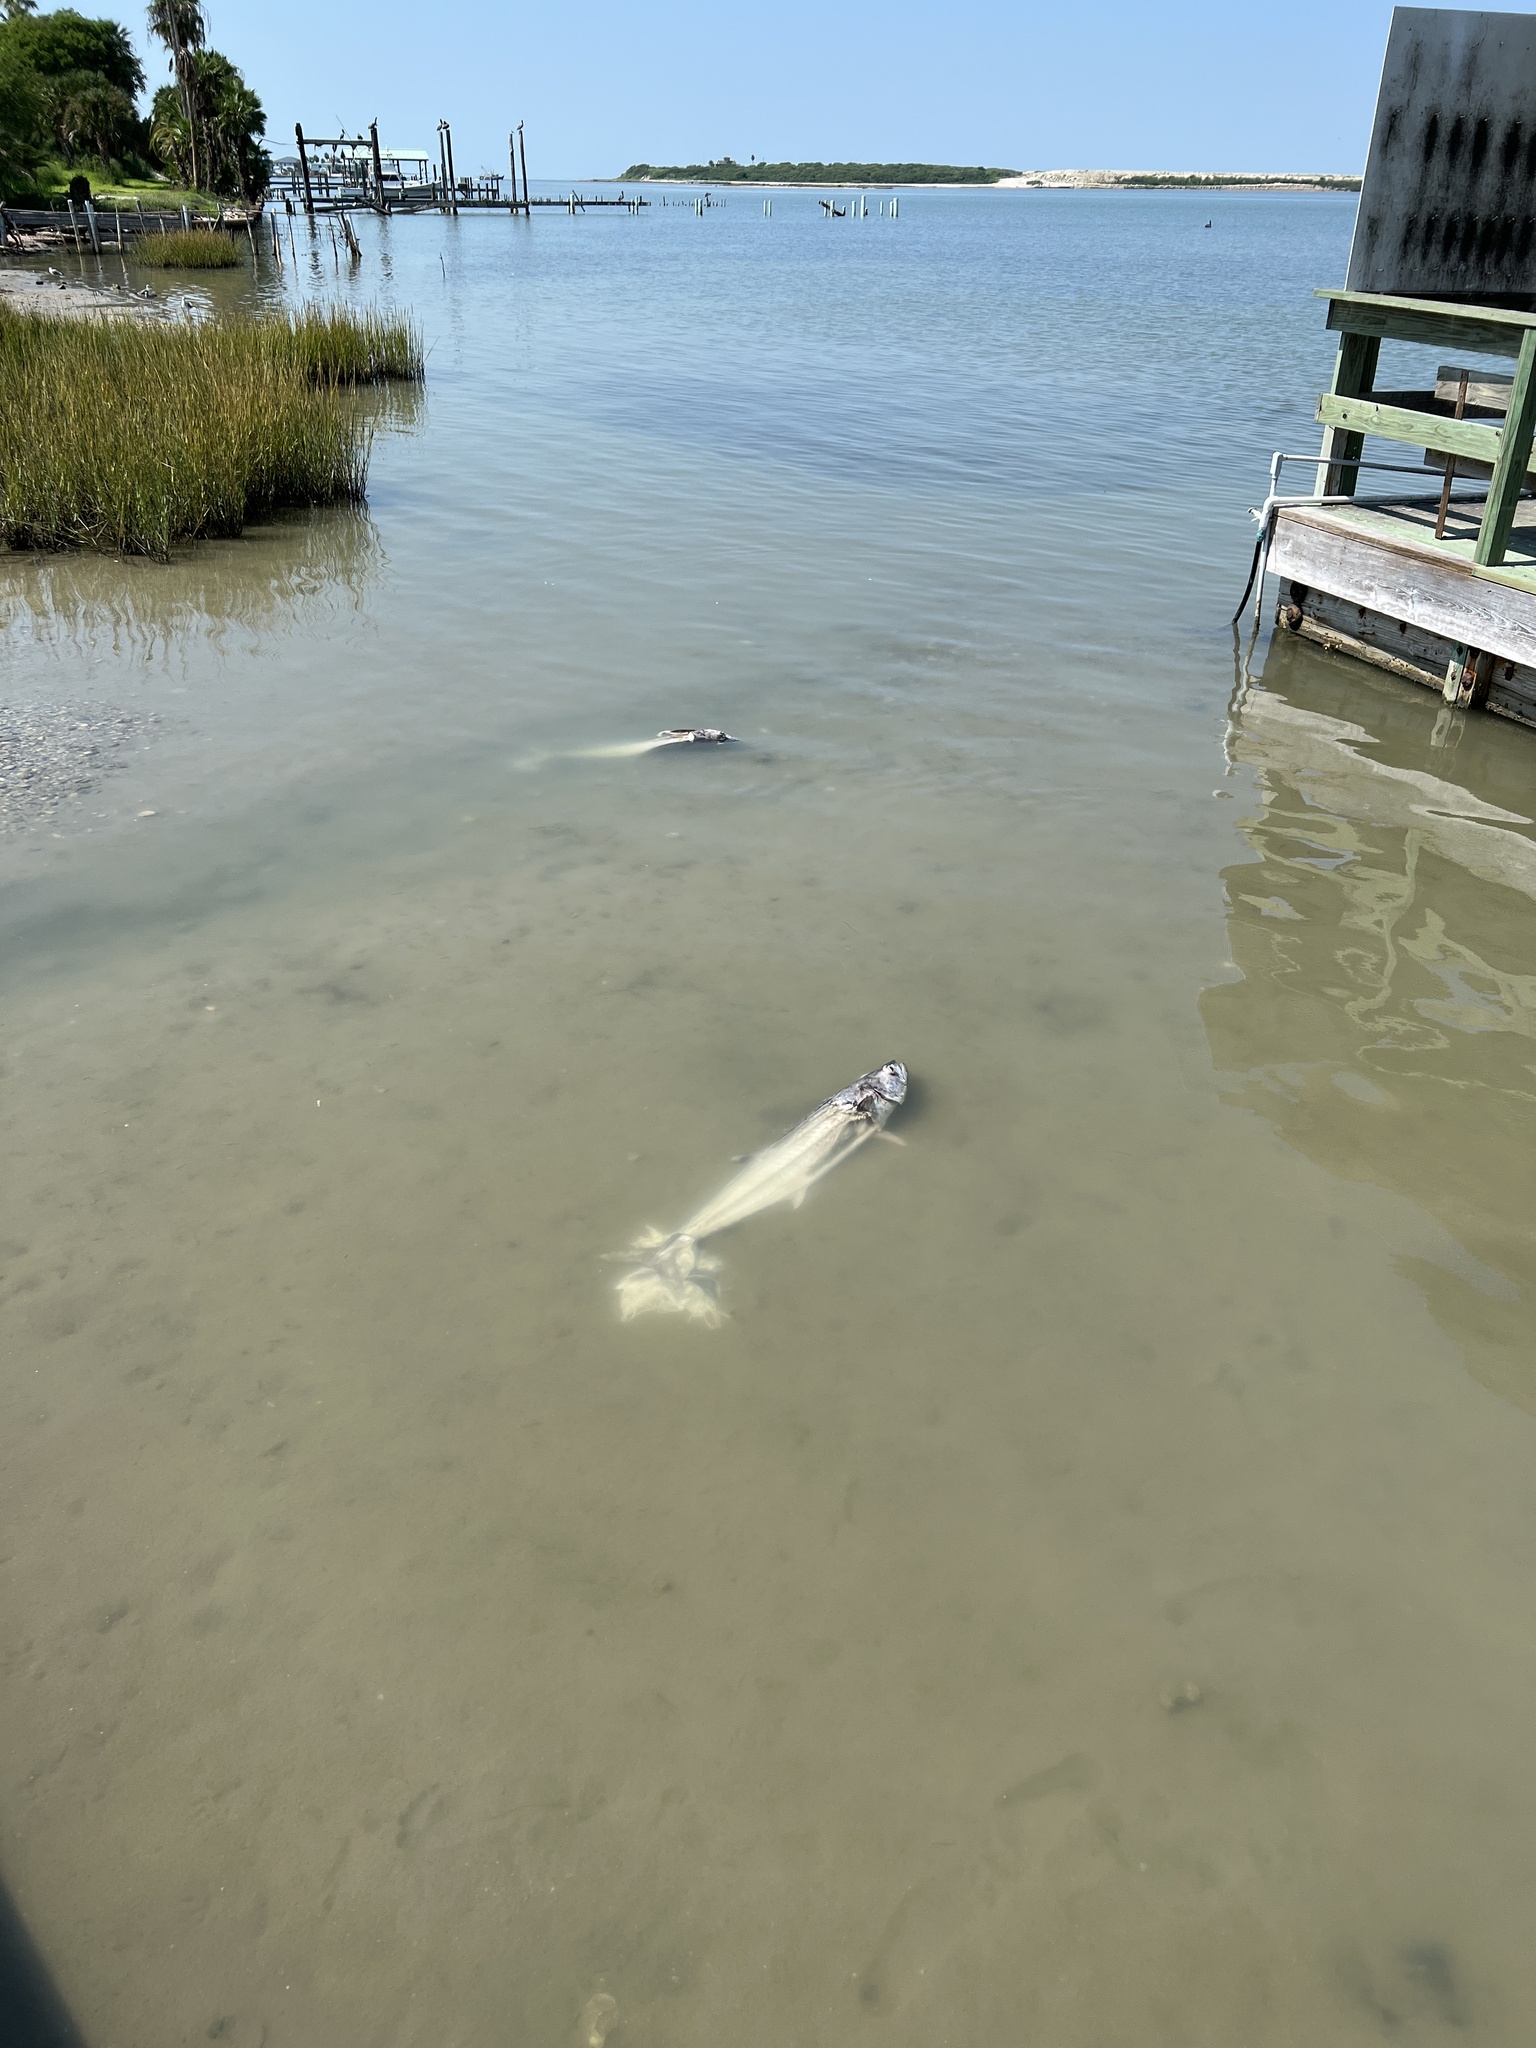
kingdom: Animalia
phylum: Chordata
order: Perciformes
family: Scombridae
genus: Scomberomorus
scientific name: Scomberomorus cavalla
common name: King mackerel
